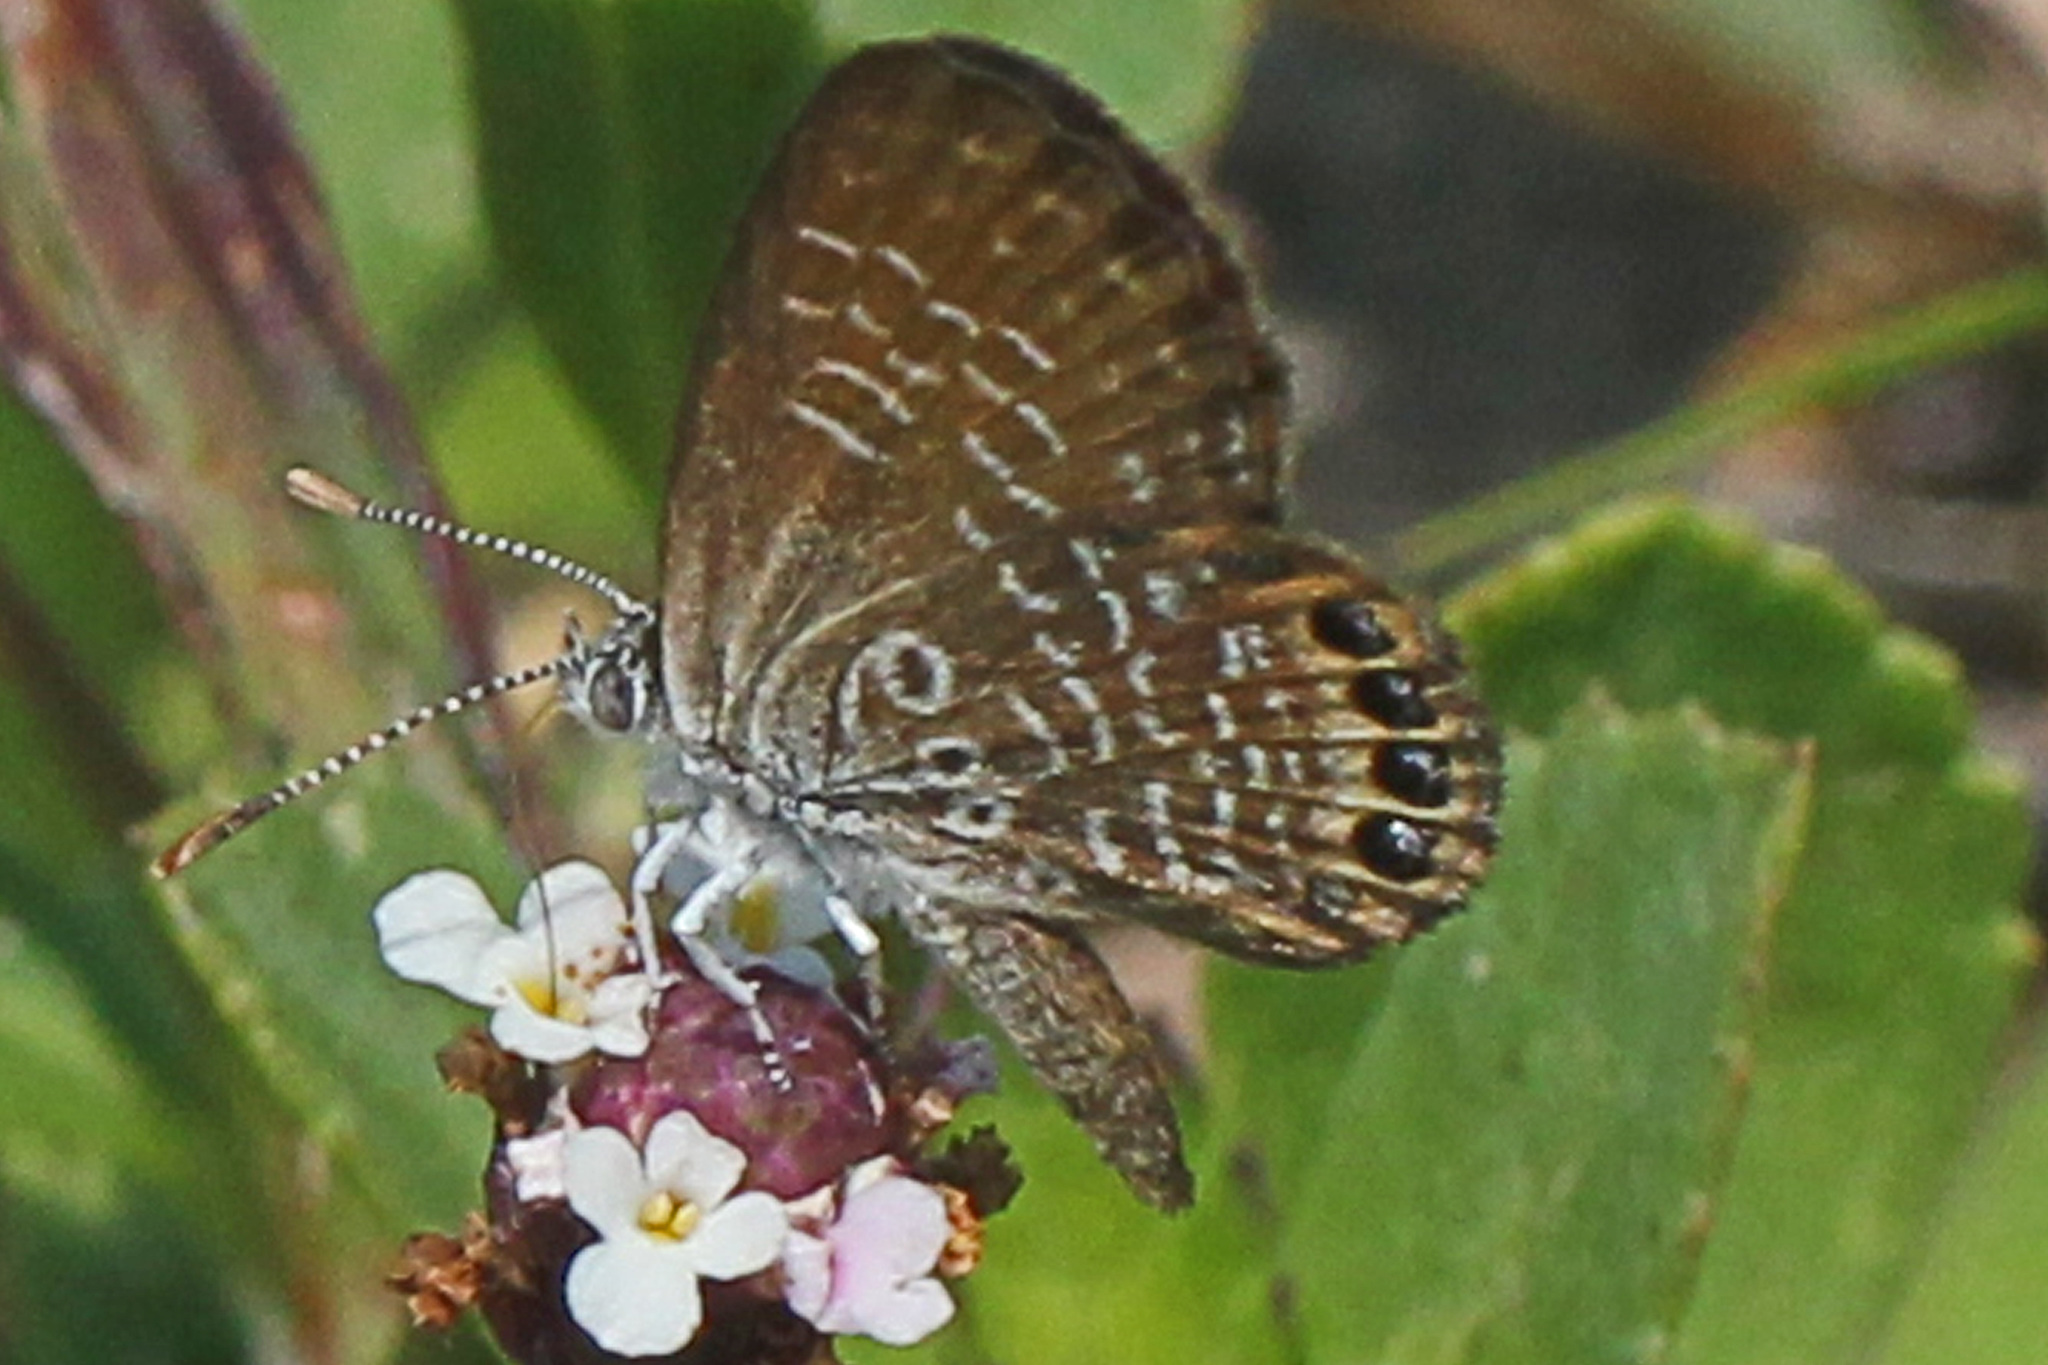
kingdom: Animalia
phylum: Arthropoda
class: Insecta
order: Lepidoptera
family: Lycaenidae
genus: Brephidium
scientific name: Brephidium isophthalma
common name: Eastern pygmy-blue
